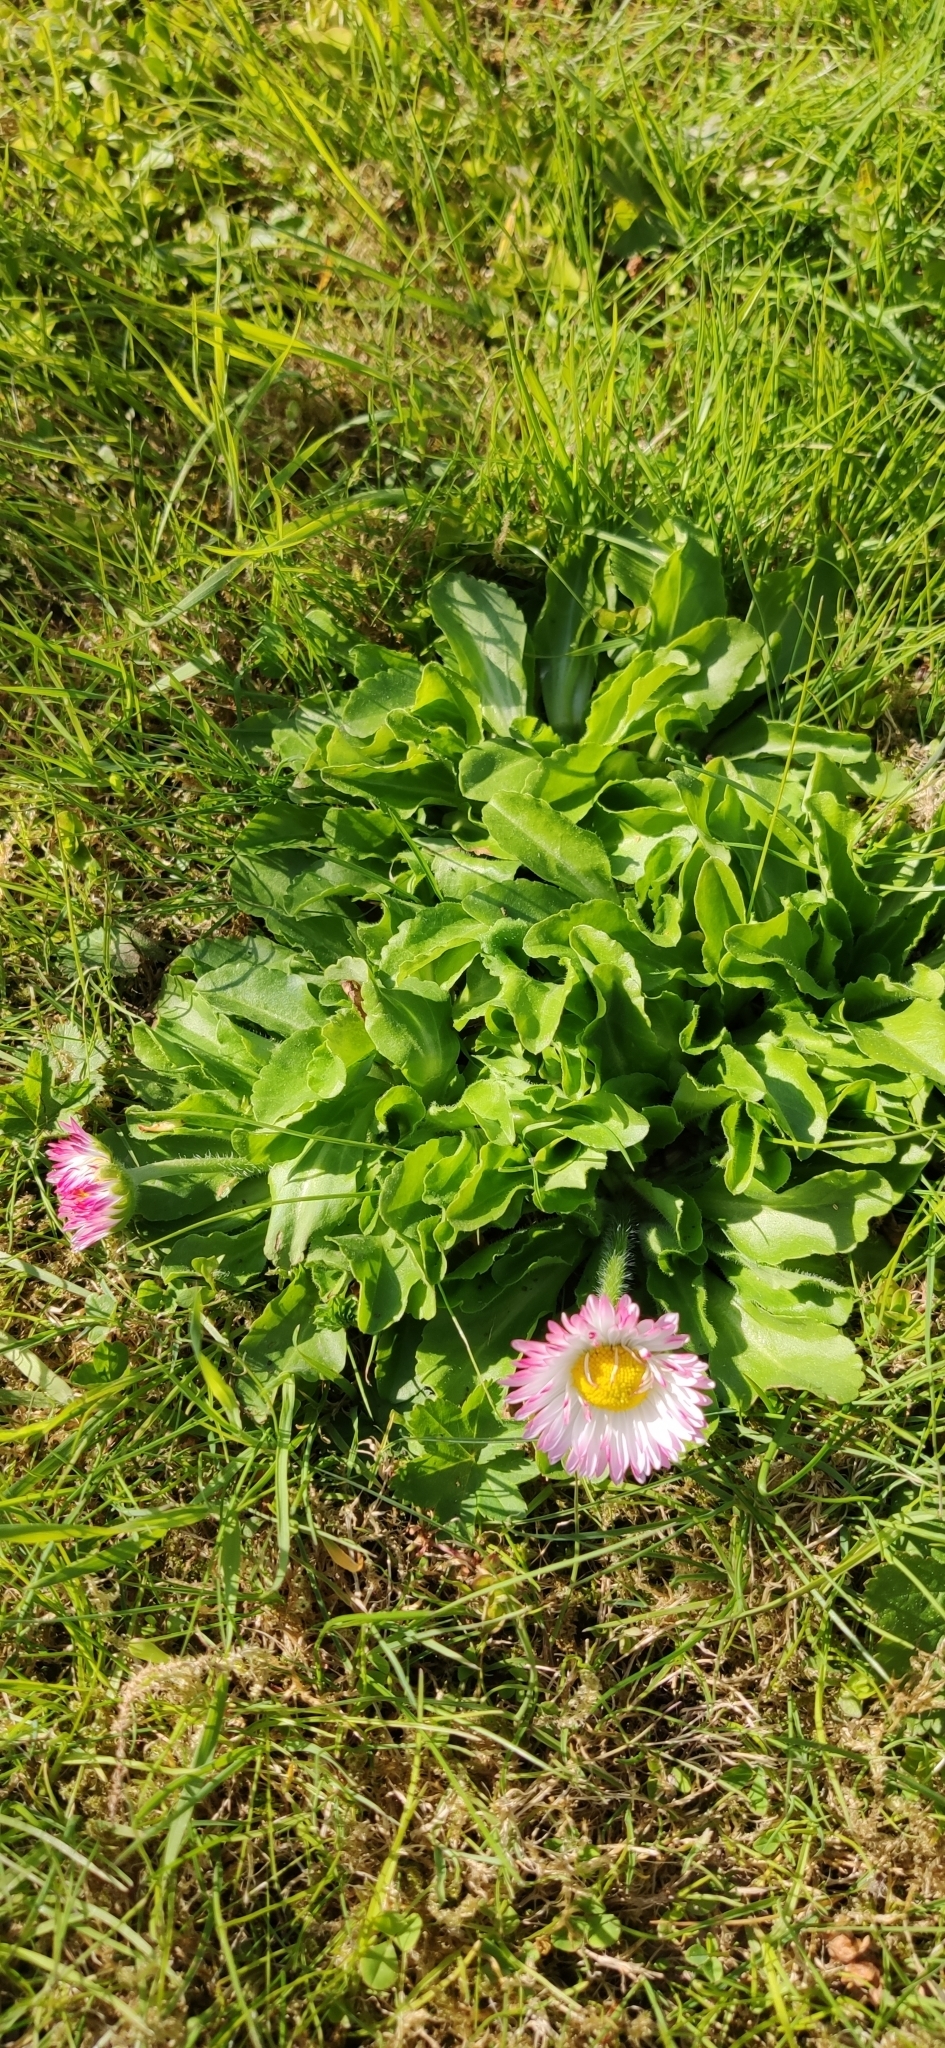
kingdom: Plantae
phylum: Tracheophyta
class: Magnoliopsida
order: Asterales
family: Asteraceae
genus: Bellis
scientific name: Bellis perennis
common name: Lawndaisy
